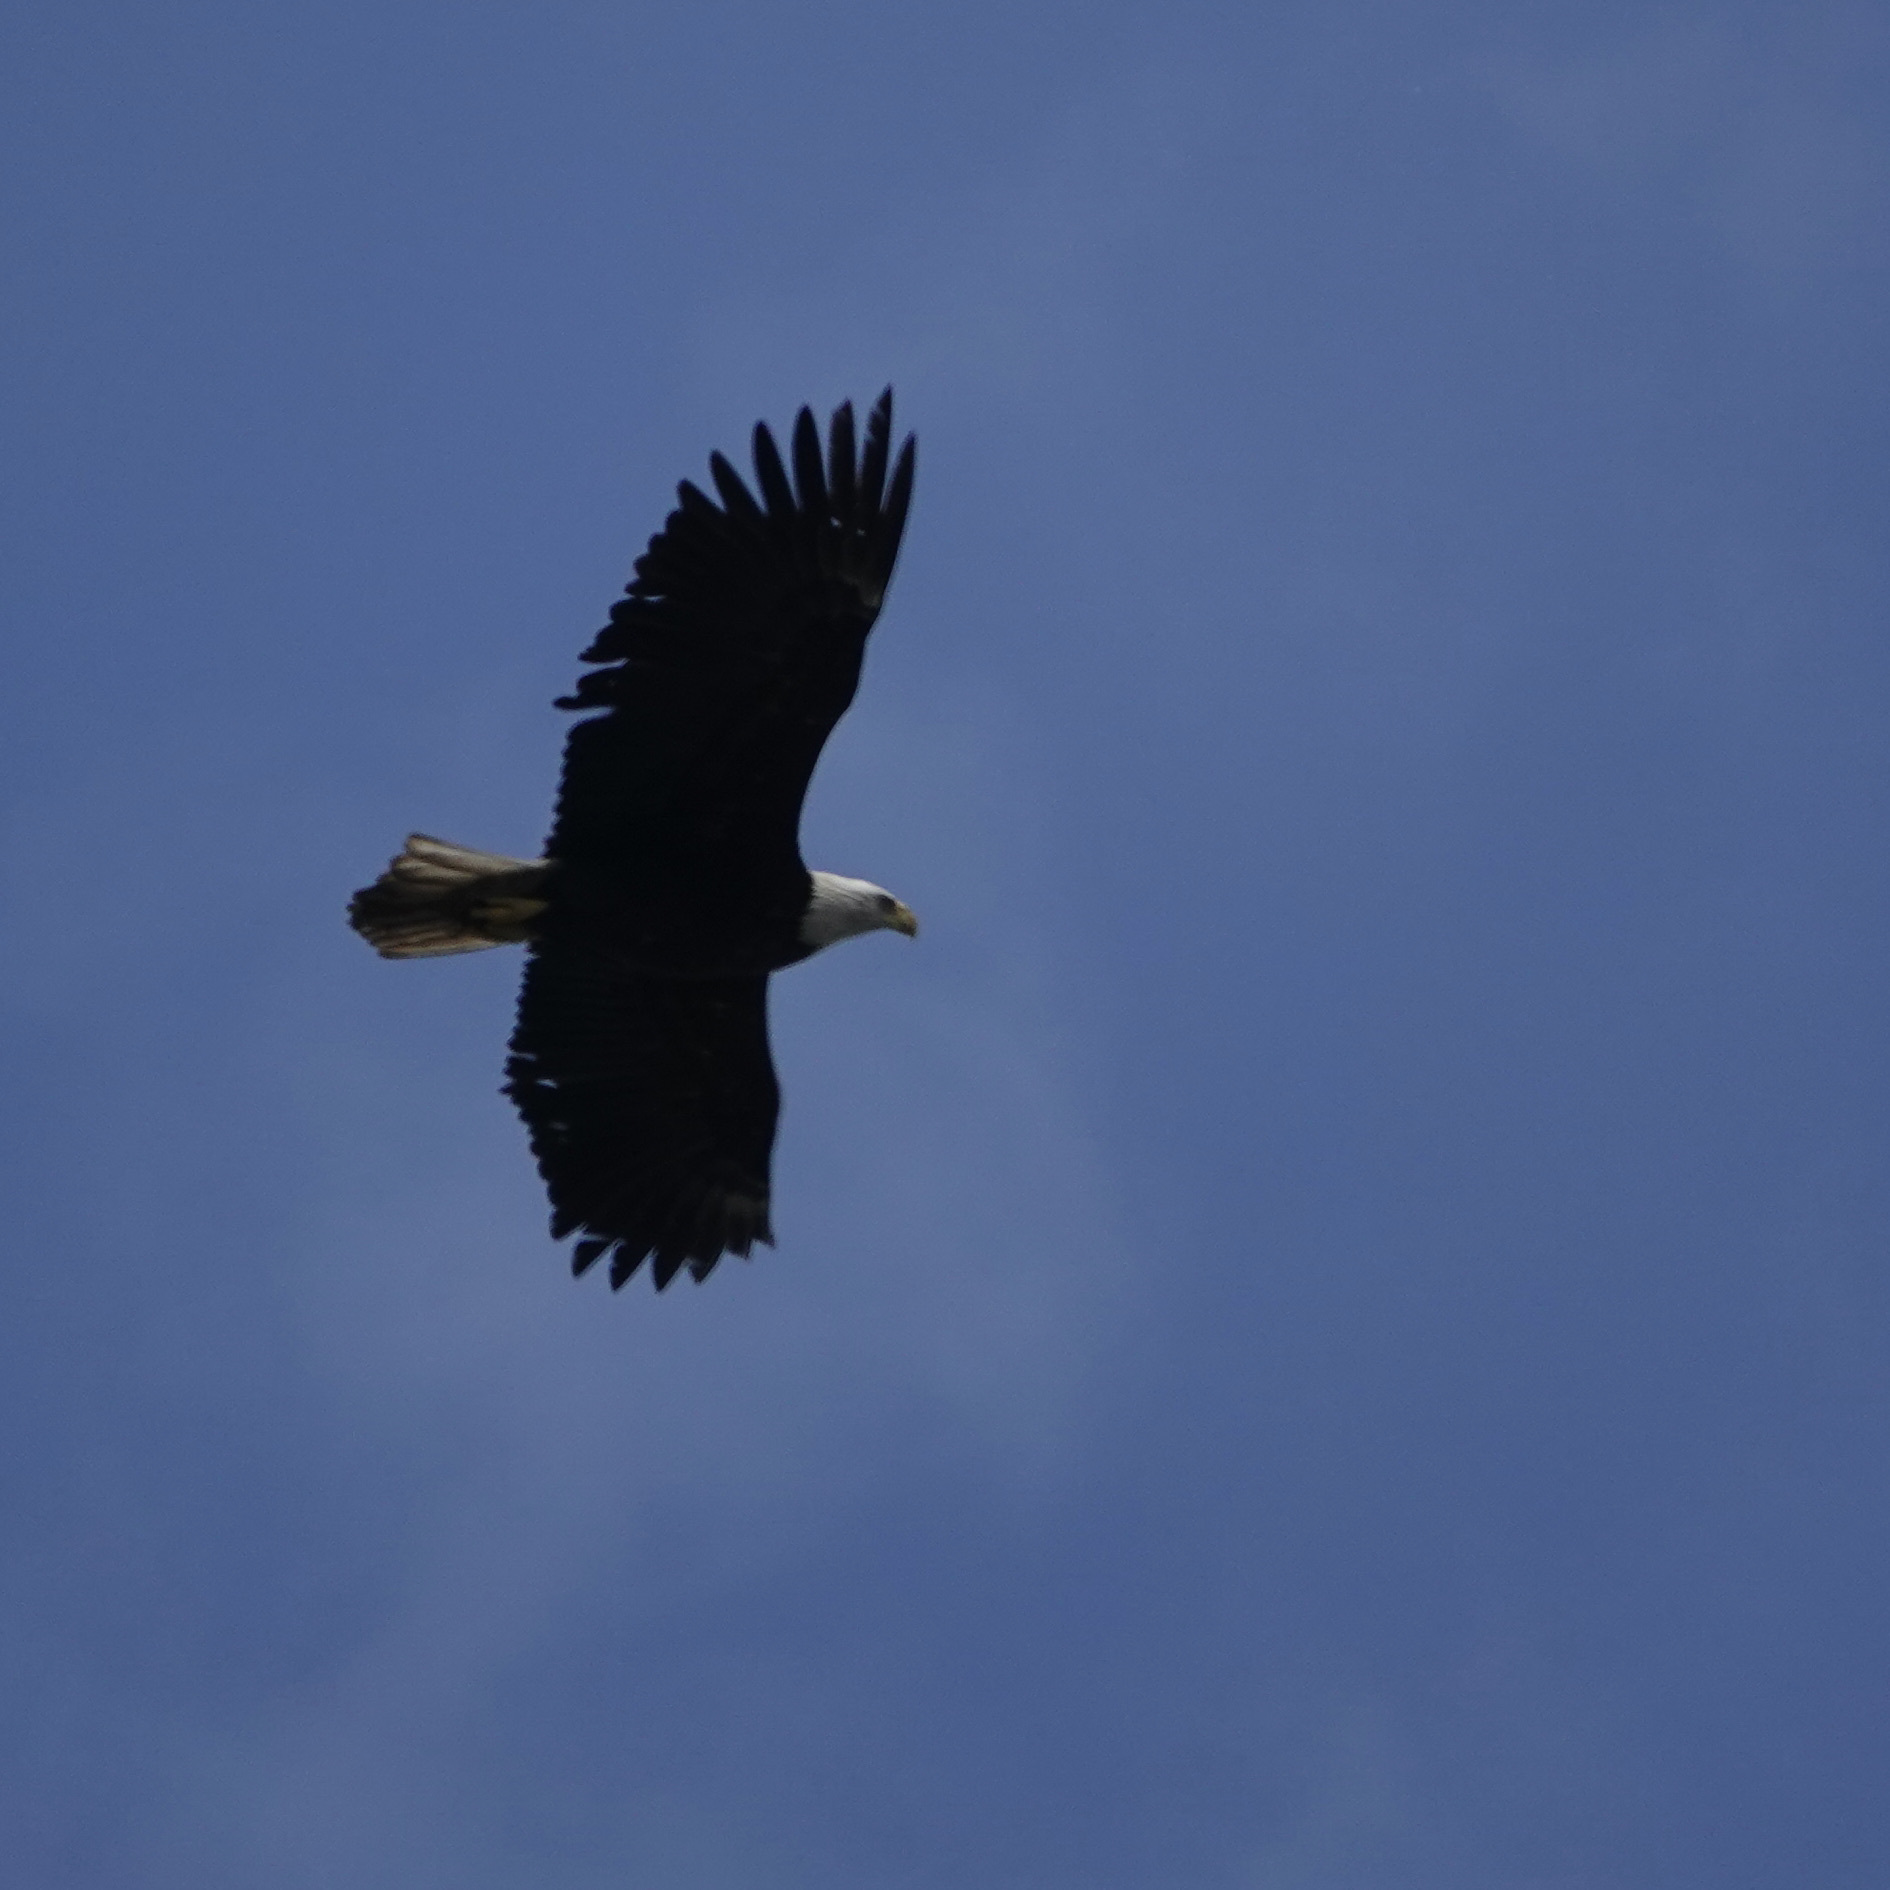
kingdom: Animalia
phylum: Chordata
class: Aves
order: Accipitriformes
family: Accipitridae
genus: Haliaeetus
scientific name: Haliaeetus leucocephalus
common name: Bald eagle
